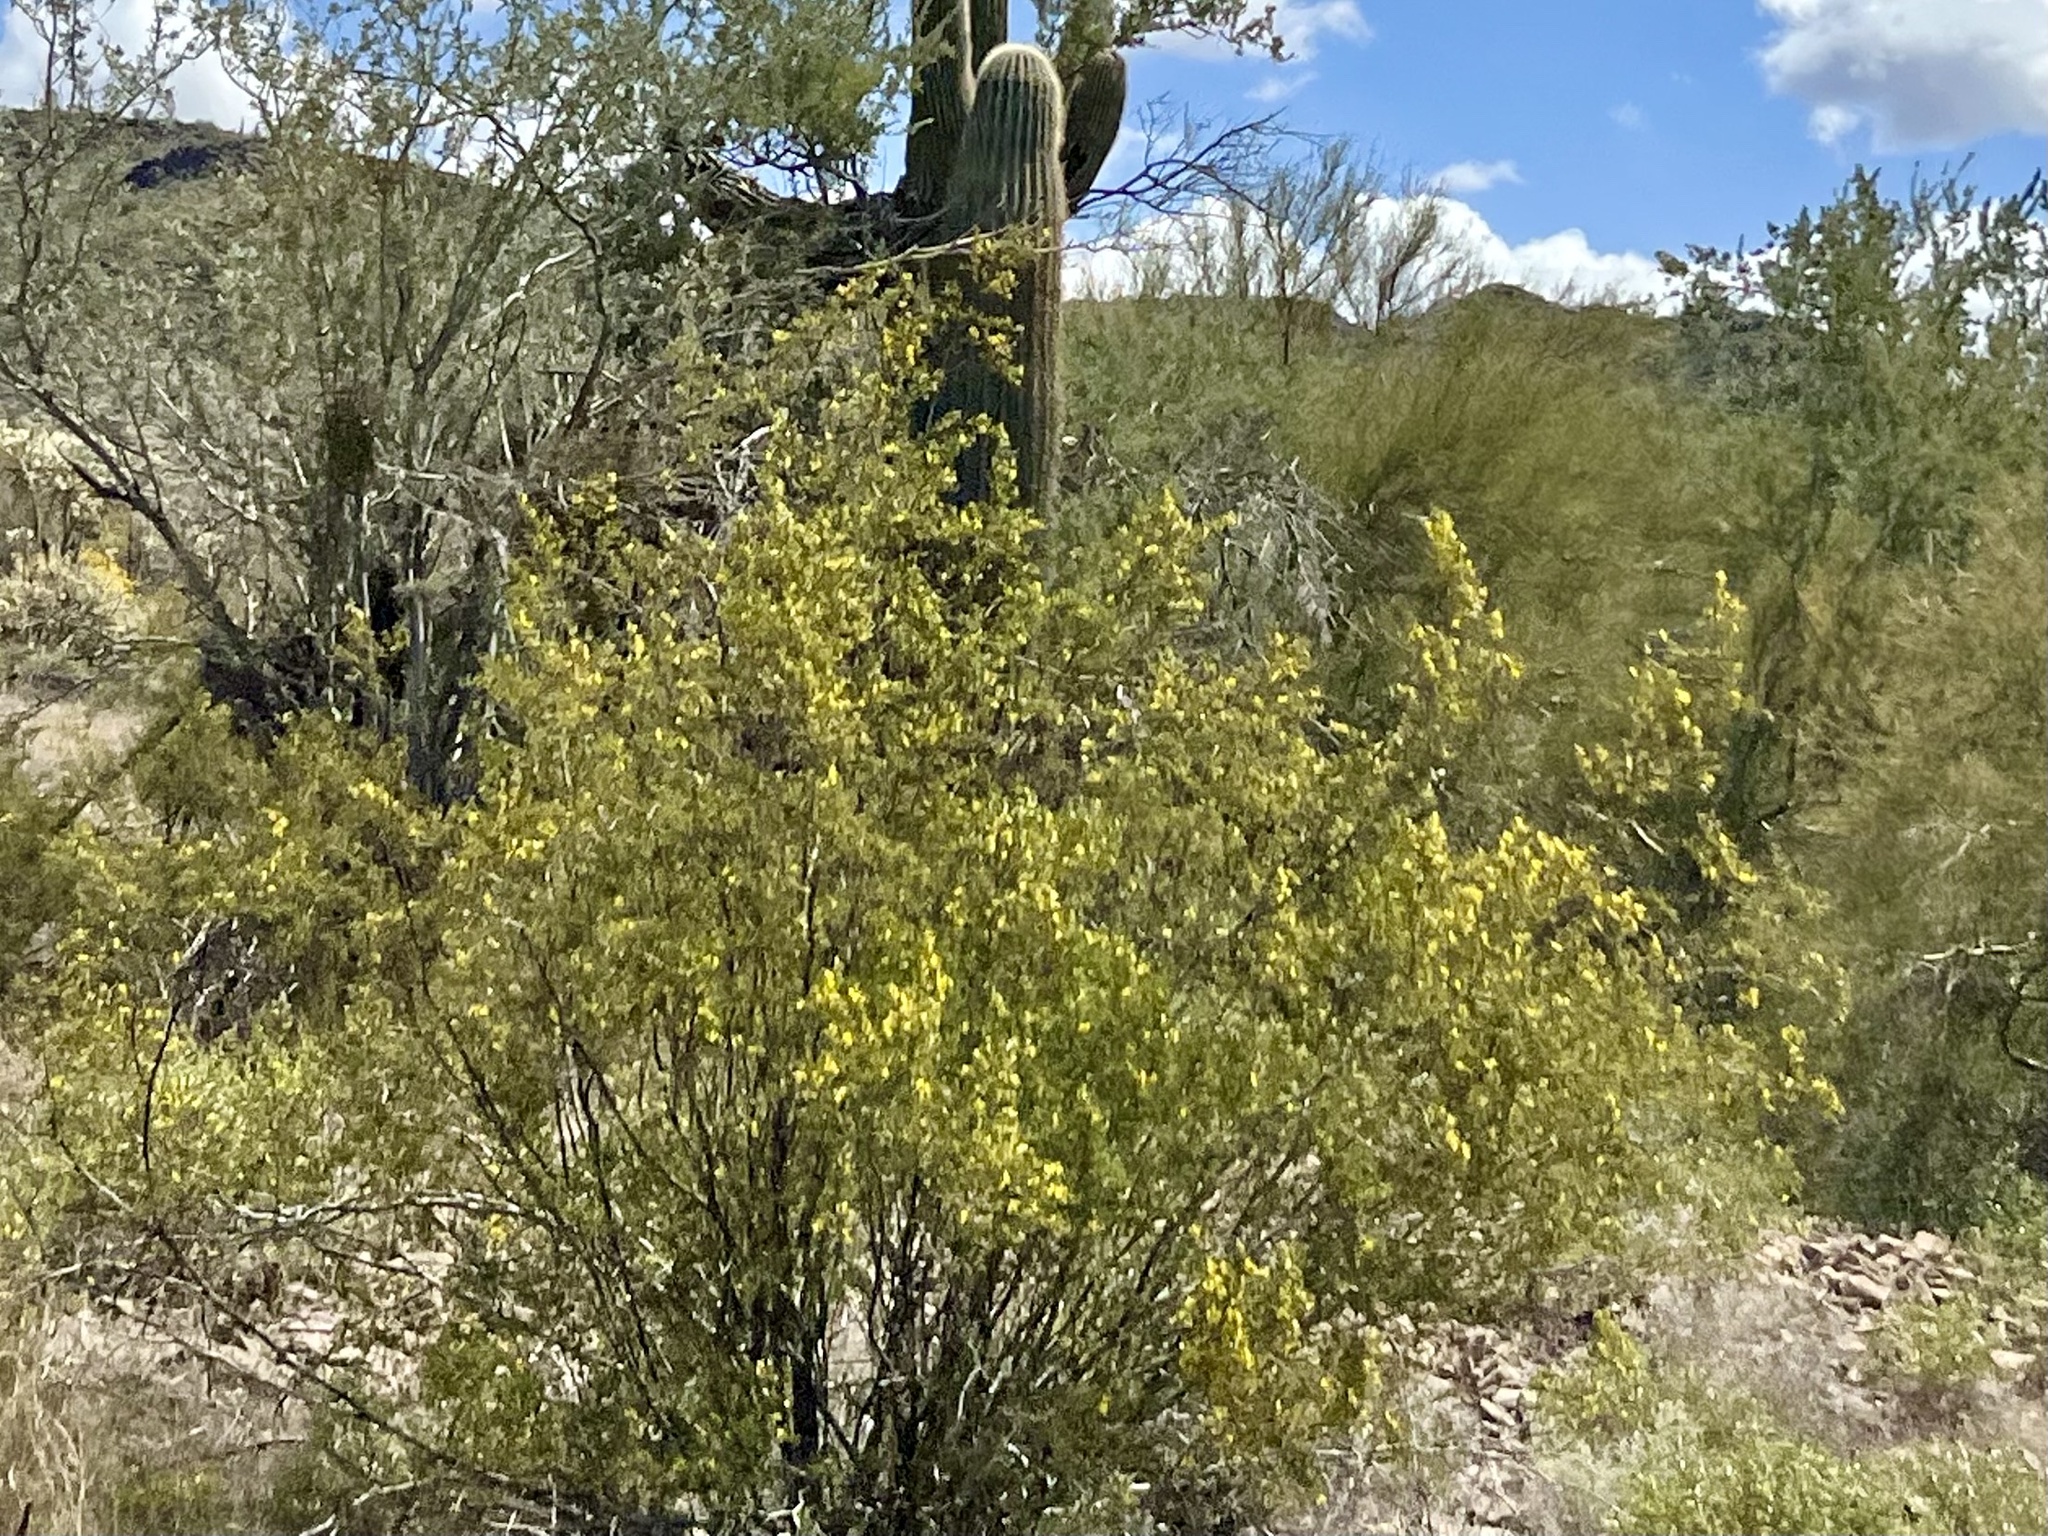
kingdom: Plantae
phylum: Tracheophyta
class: Magnoliopsida
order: Zygophyllales
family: Zygophyllaceae
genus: Larrea
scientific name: Larrea tridentata
